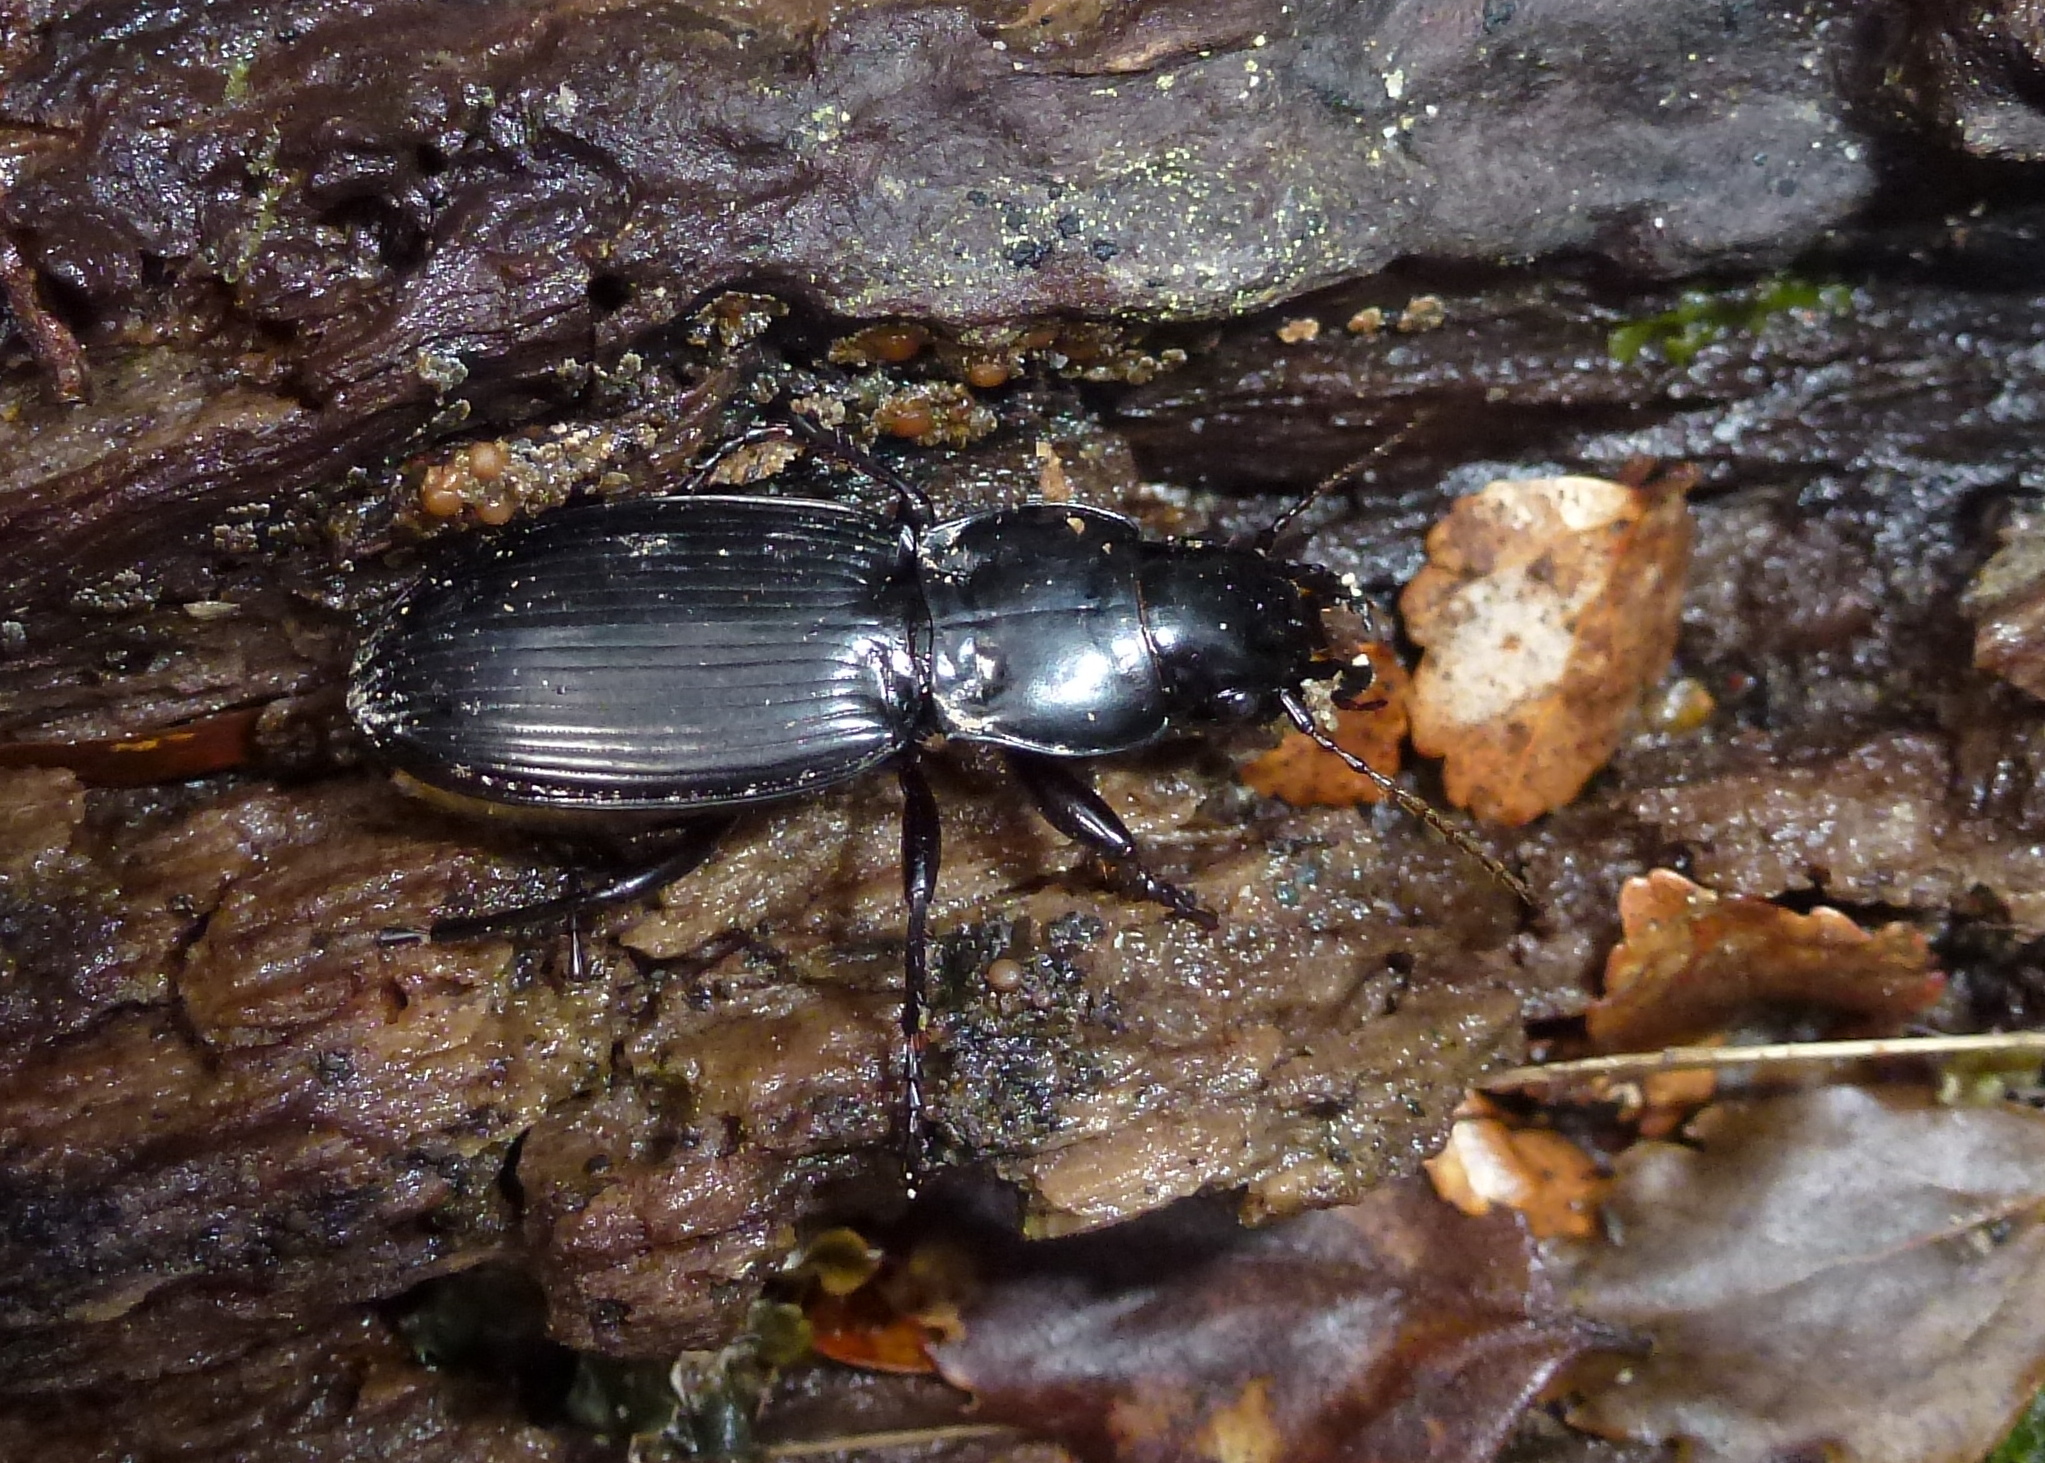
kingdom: Animalia
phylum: Arthropoda
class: Insecta
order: Coleoptera
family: Carabidae
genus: Plocamostethus
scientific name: Plocamostethus planiusculus
